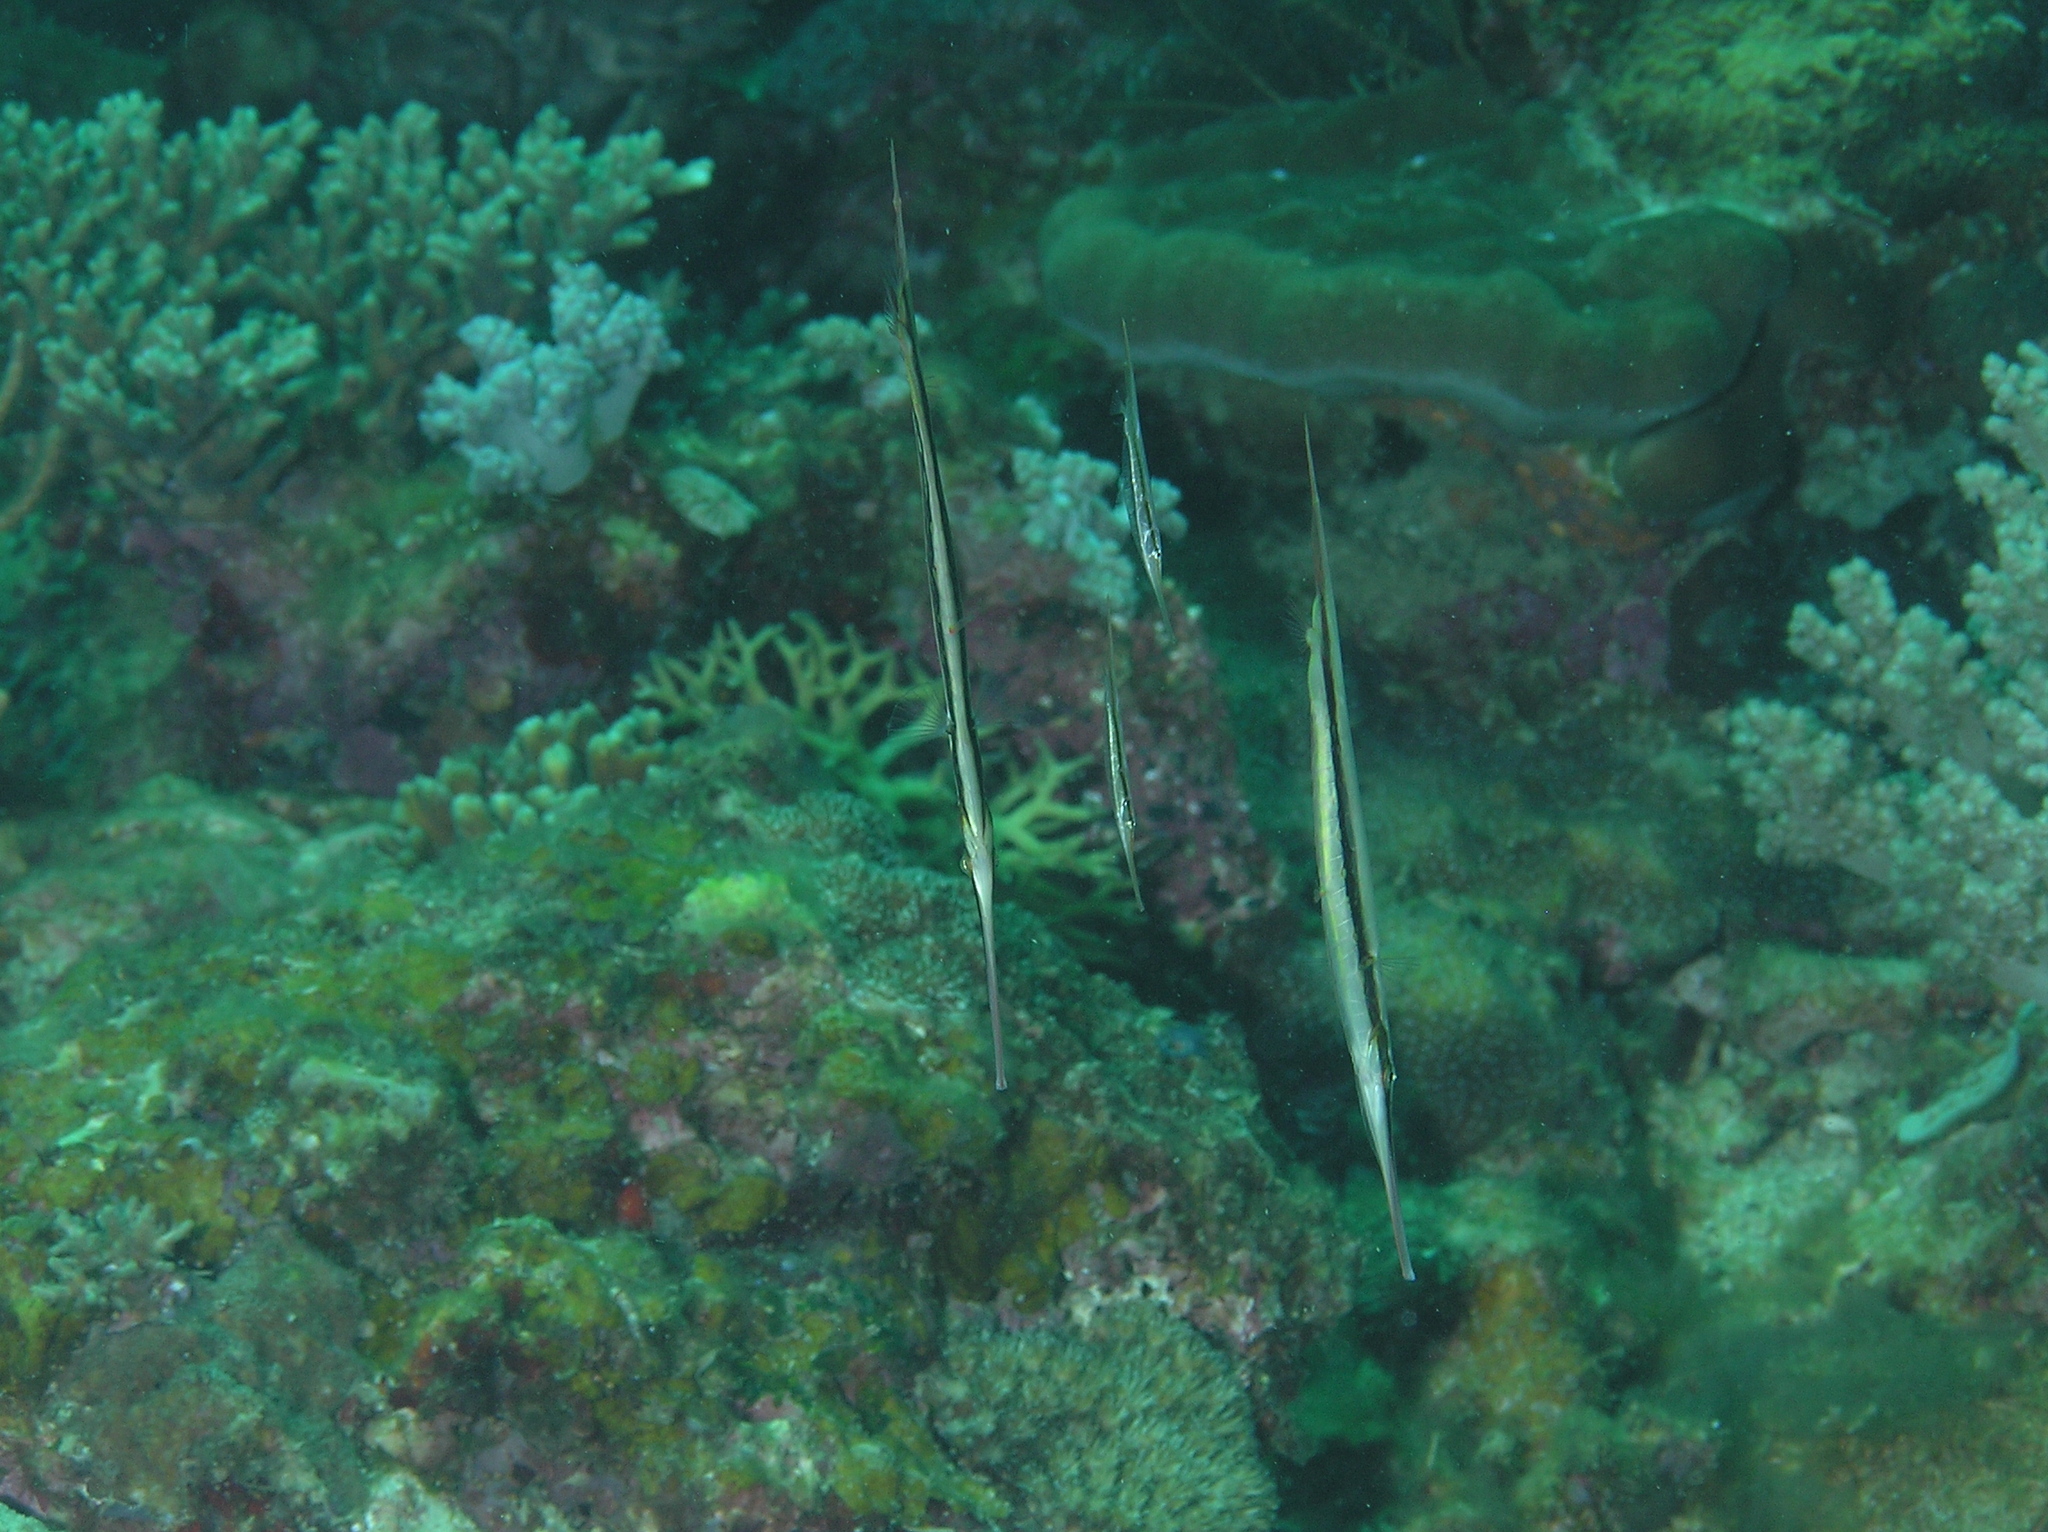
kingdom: Animalia
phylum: Chordata
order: Syngnathiformes
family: Centriscidae
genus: Aeoliscus
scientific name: Aeoliscus strigatus
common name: Canif
